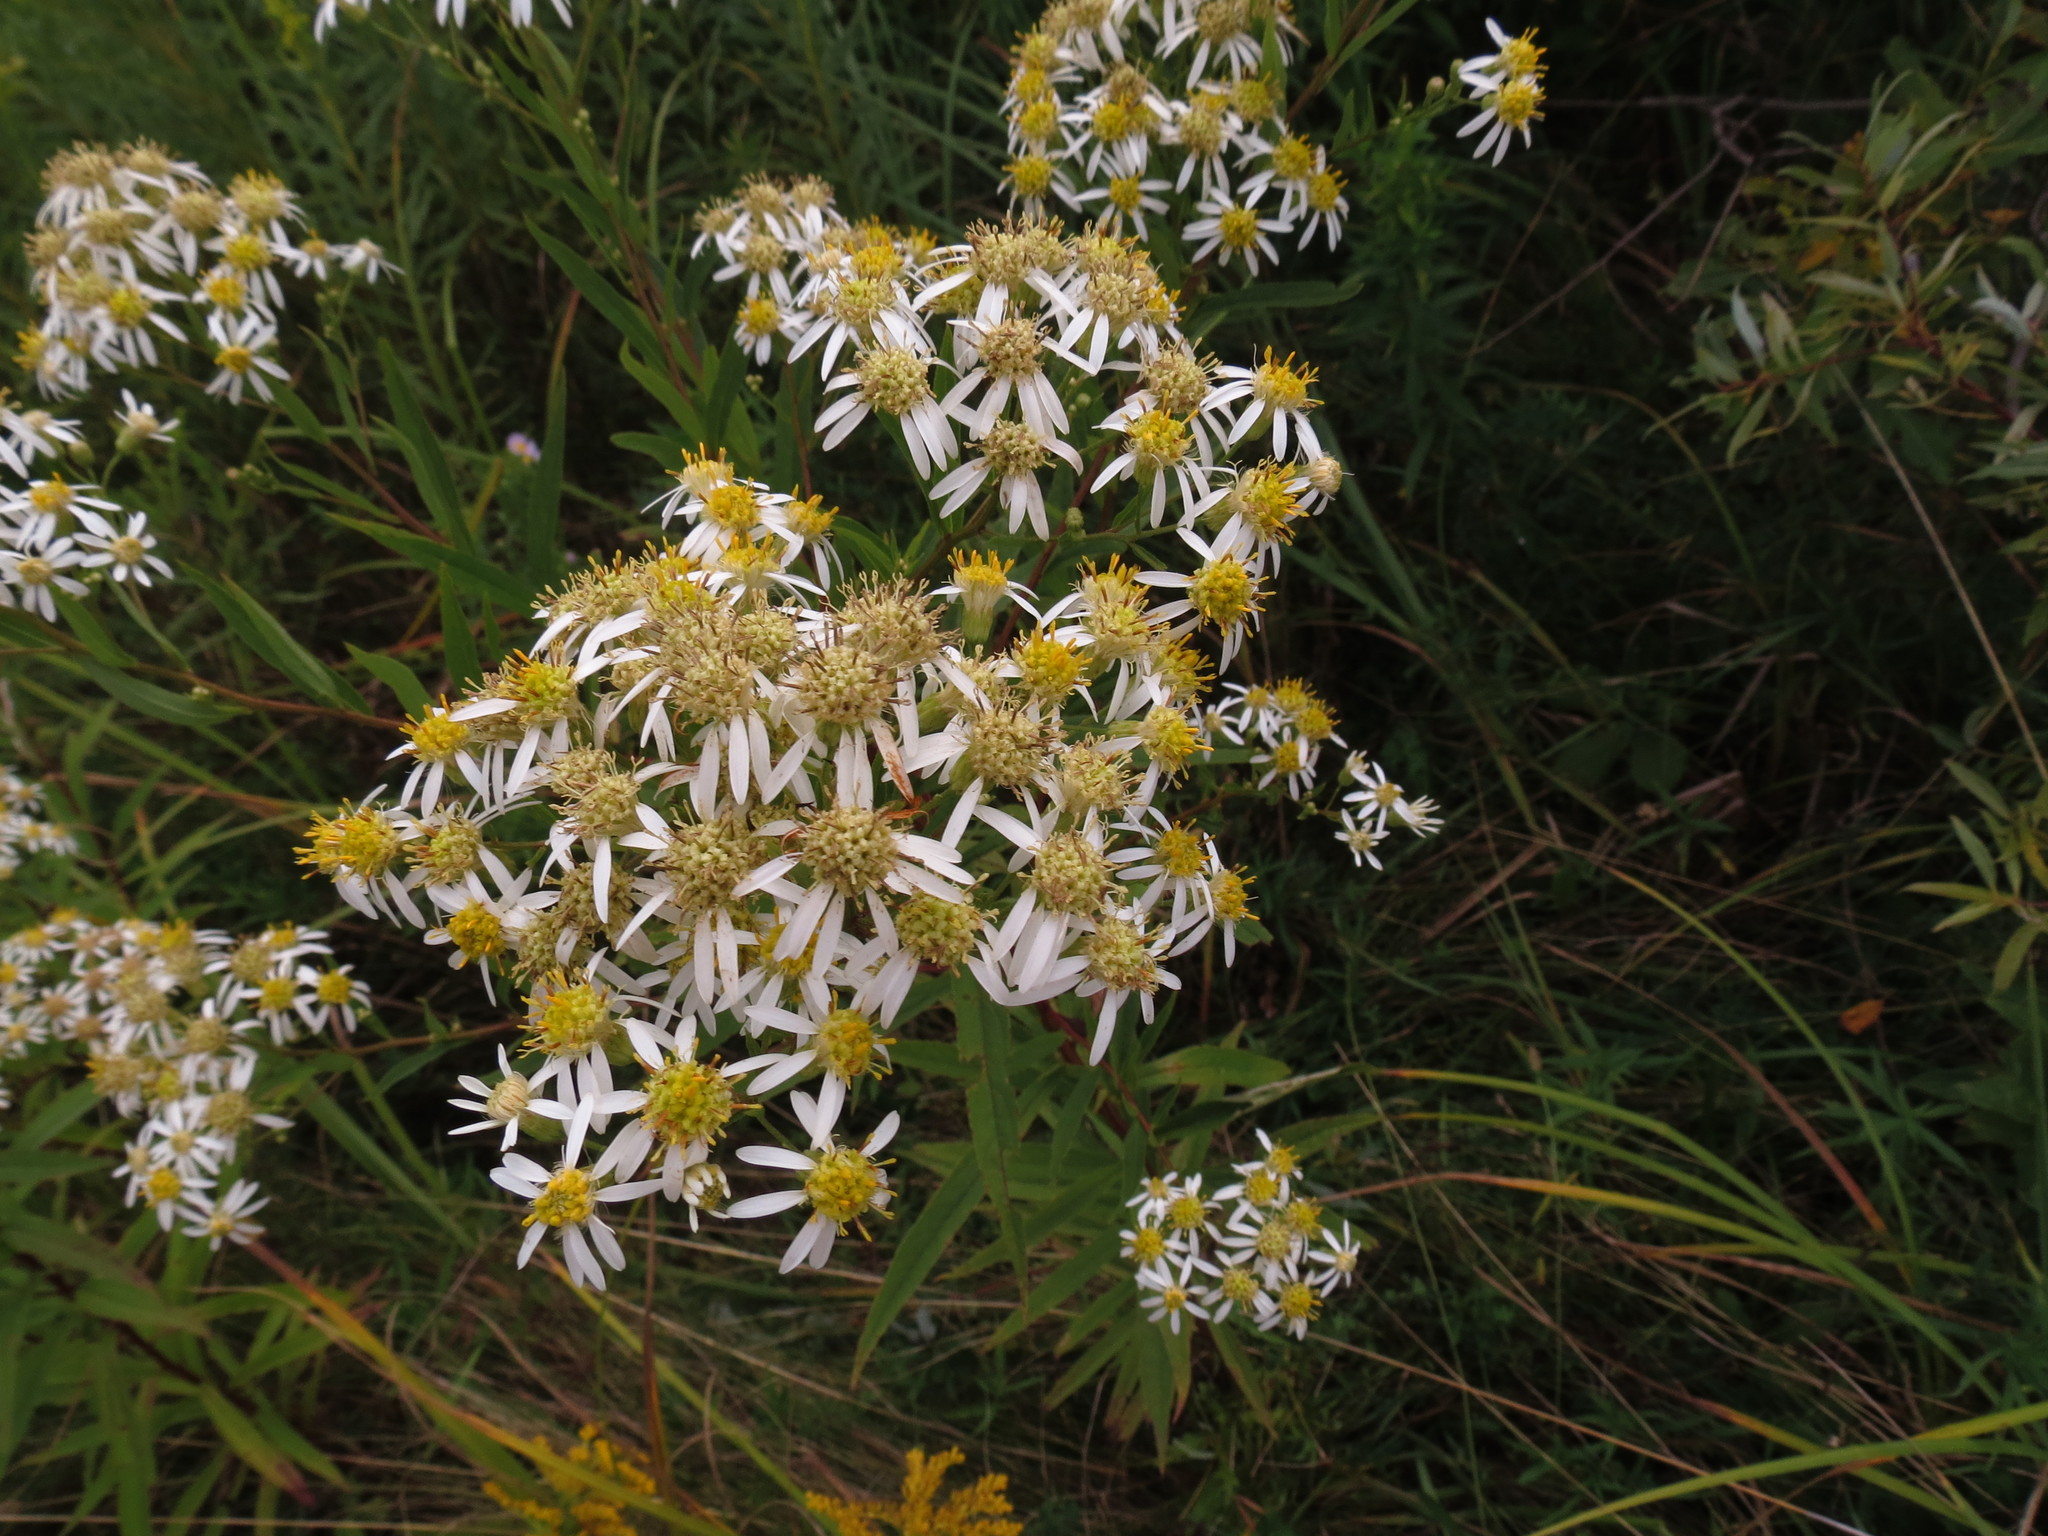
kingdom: Plantae
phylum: Tracheophyta
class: Magnoliopsida
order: Asterales
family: Asteraceae
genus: Doellingeria
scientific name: Doellingeria umbellata
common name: Flat-top white aster
